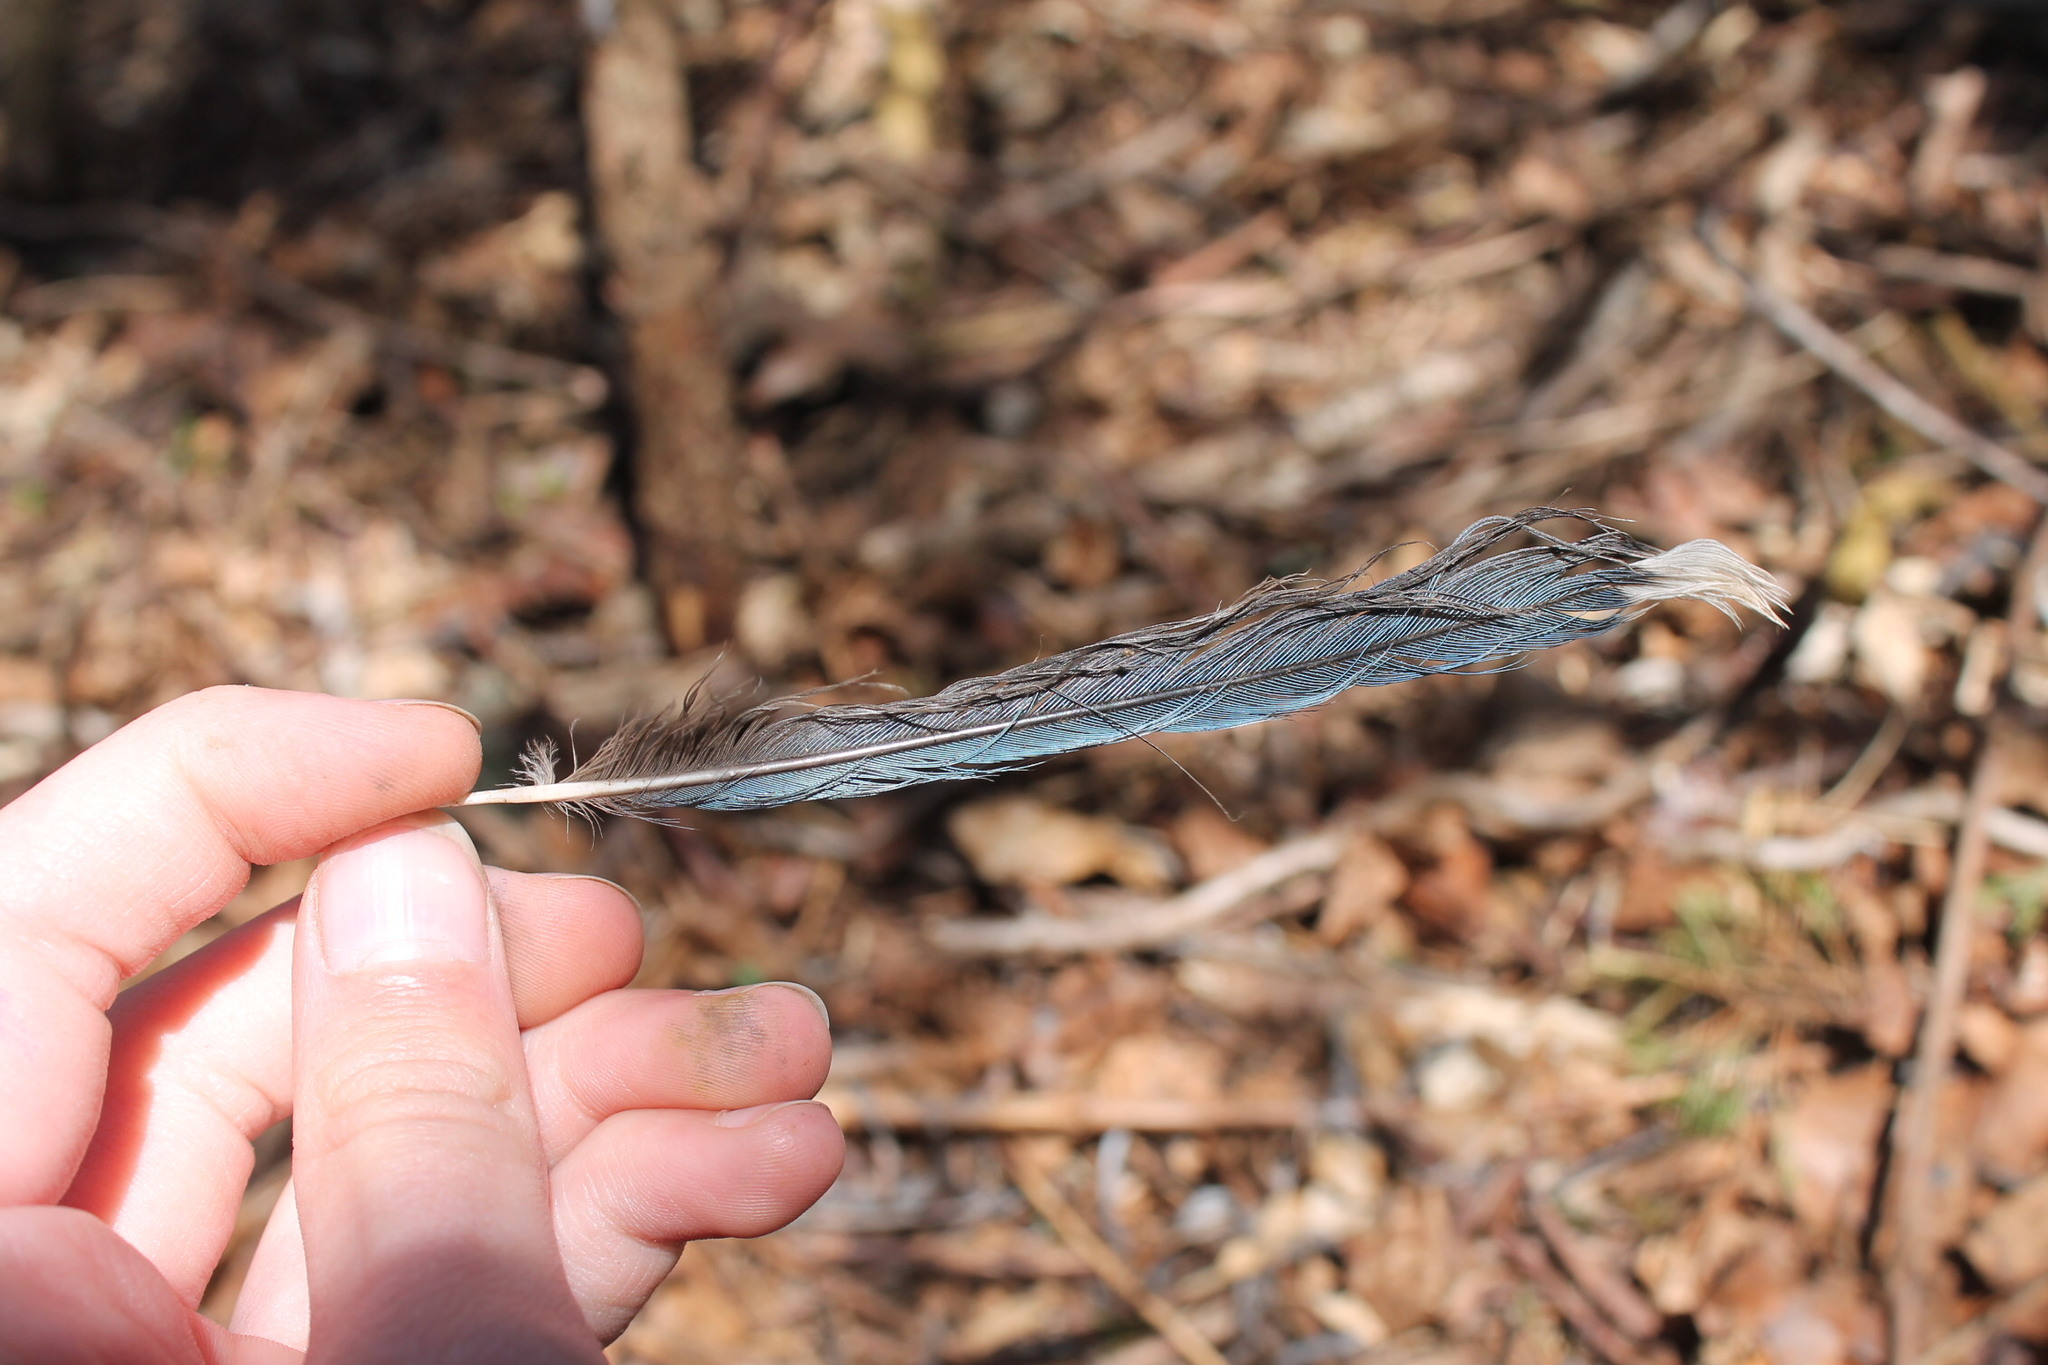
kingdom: Animalia
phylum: Chordata
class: Aves
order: Passeriformes
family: Corvidae
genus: Cyanocitta
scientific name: Cyanocitta cristata
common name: Blue jay
